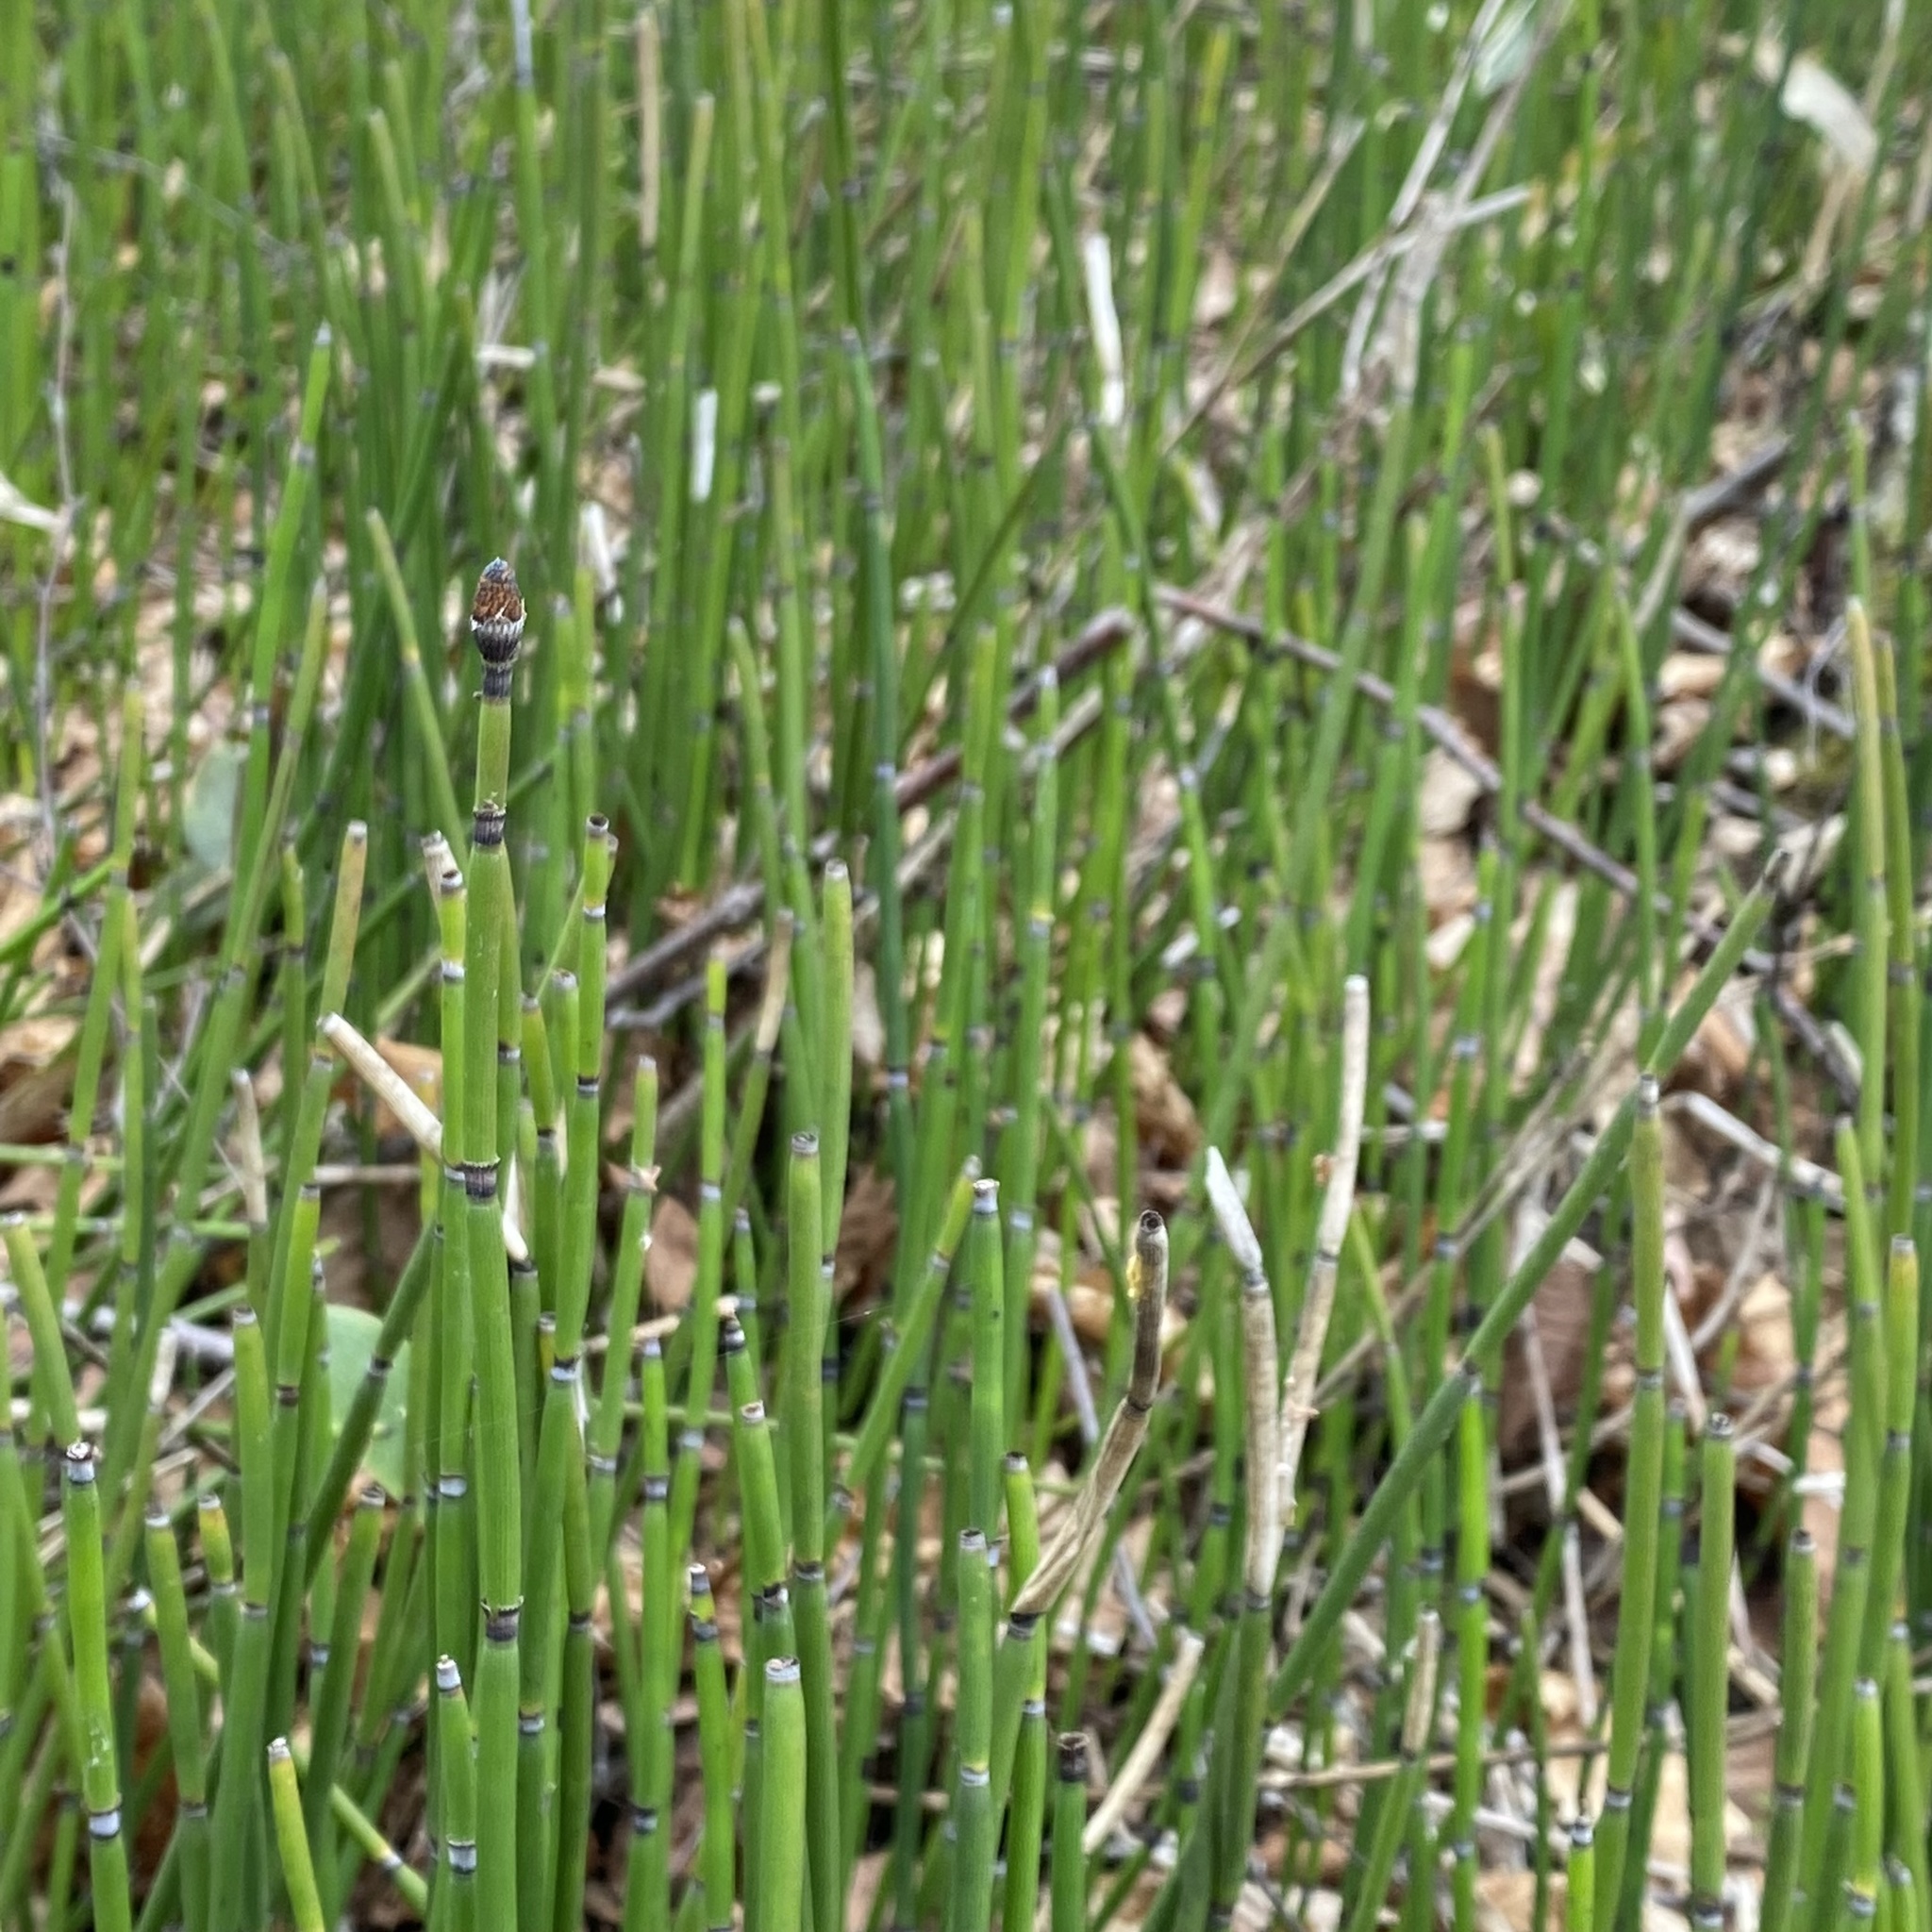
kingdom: Plantae
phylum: Tracheophyta
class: Polypodiopsida
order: Equisetales
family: Equisetaceae
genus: Equisetum
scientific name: Equisetum hyemale
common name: Rough horsetail
